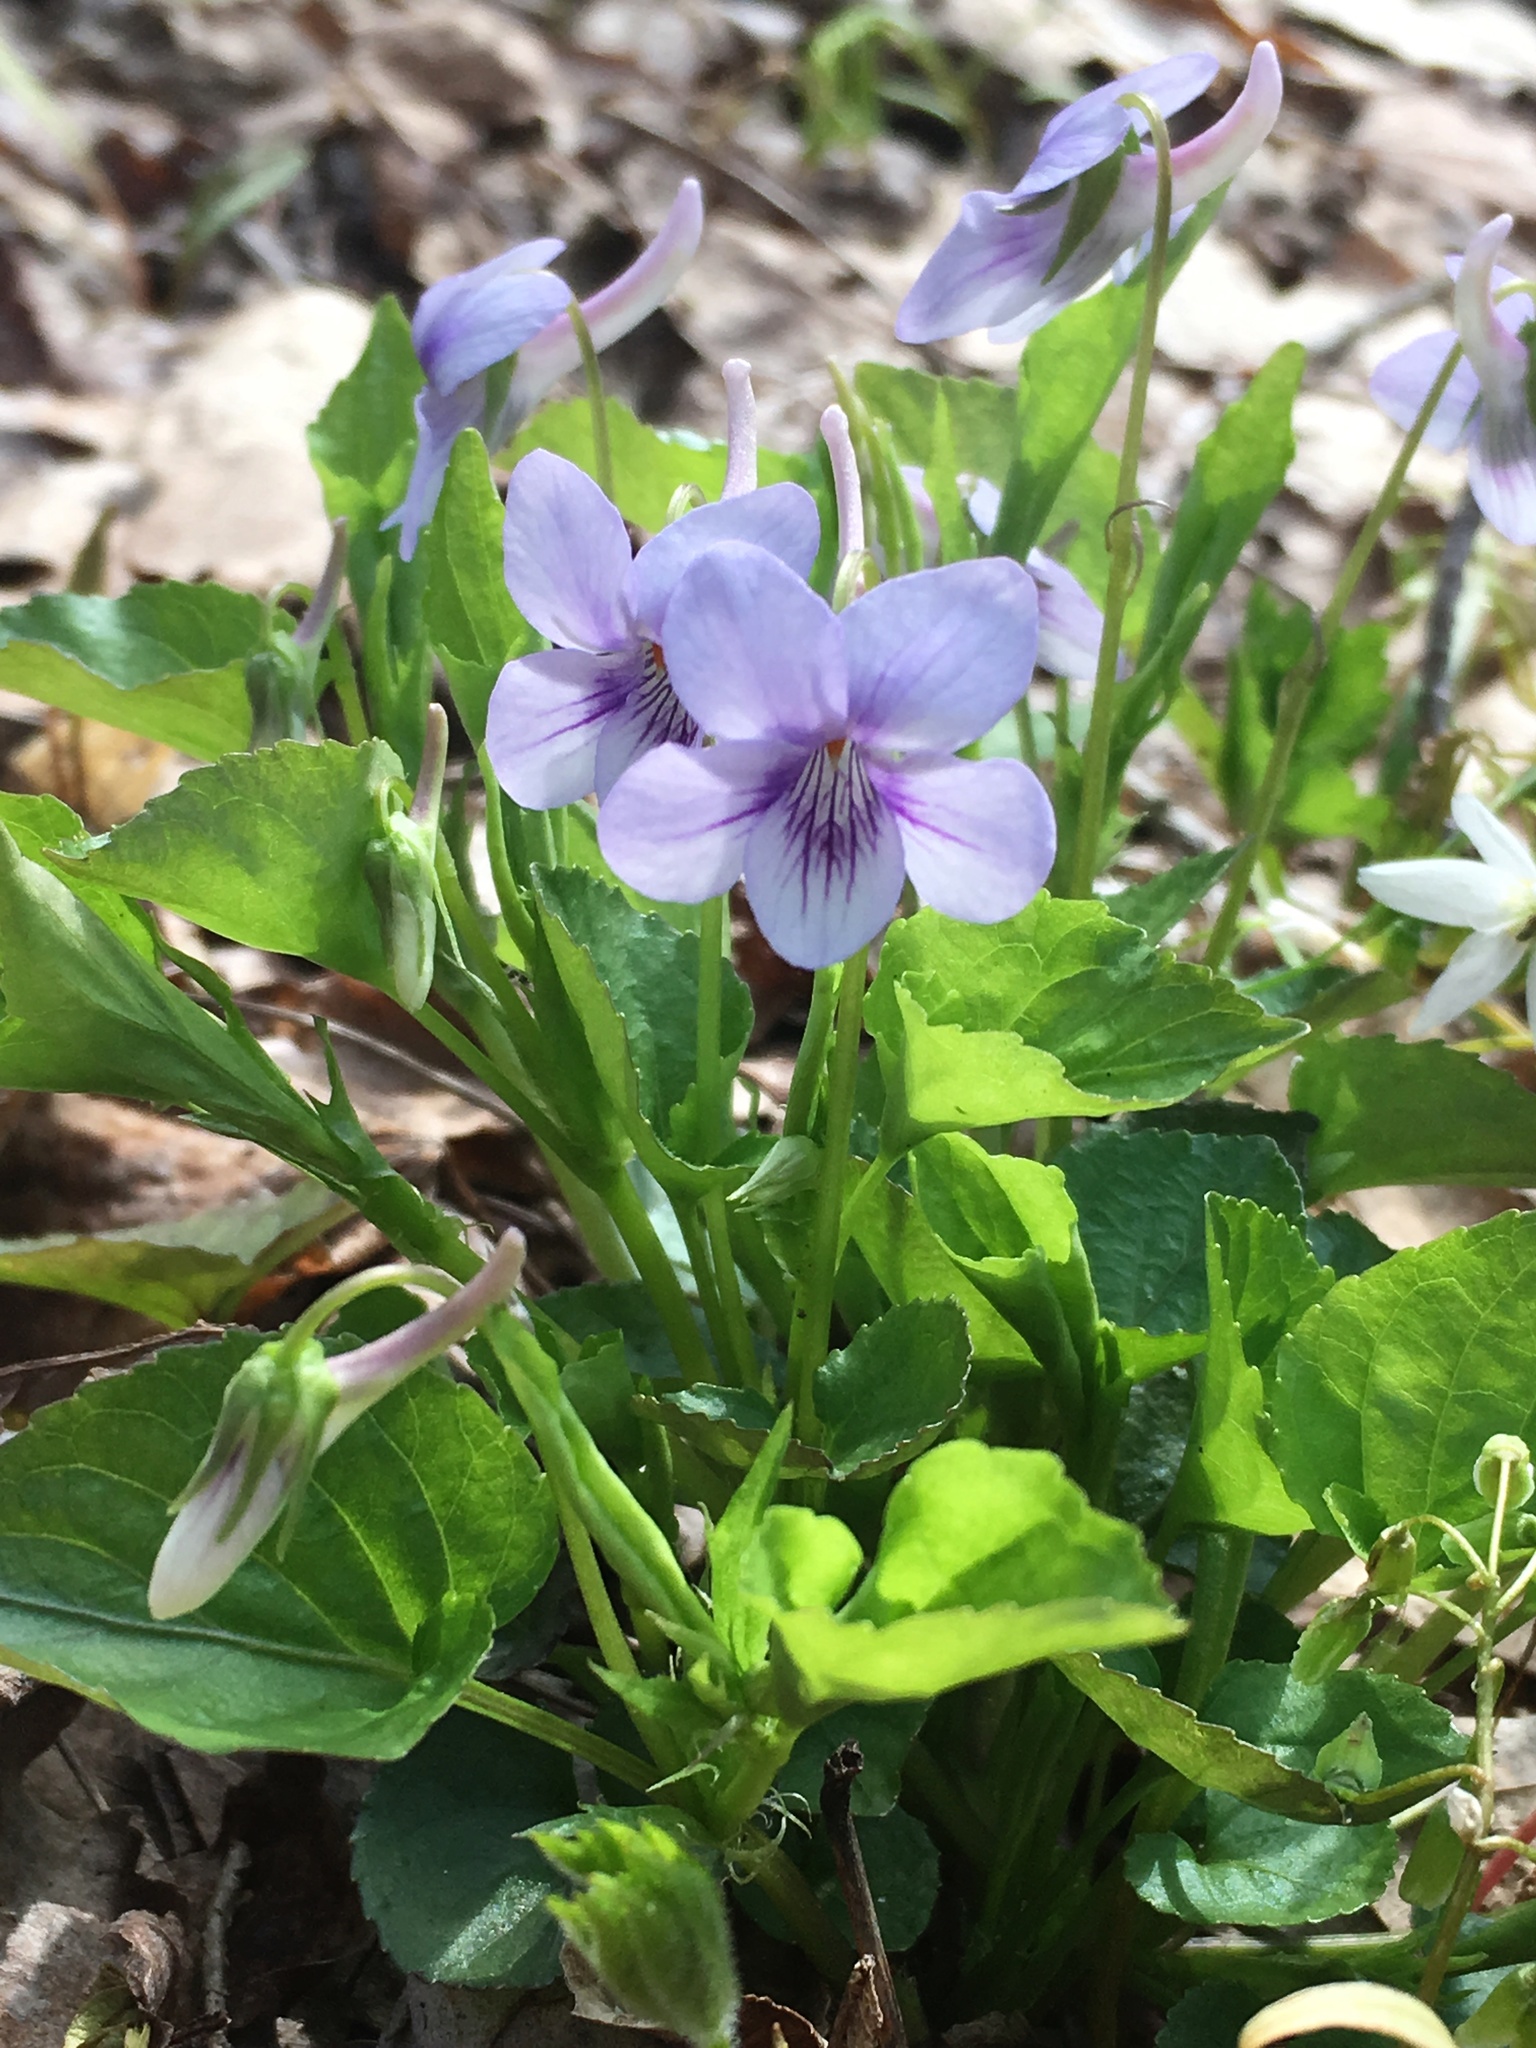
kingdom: Plantae
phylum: Tracheophyta
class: Magnoliopsida
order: Malpighiales
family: Violaceae
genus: Viola
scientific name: Viola rostrata
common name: Long-spur violet
